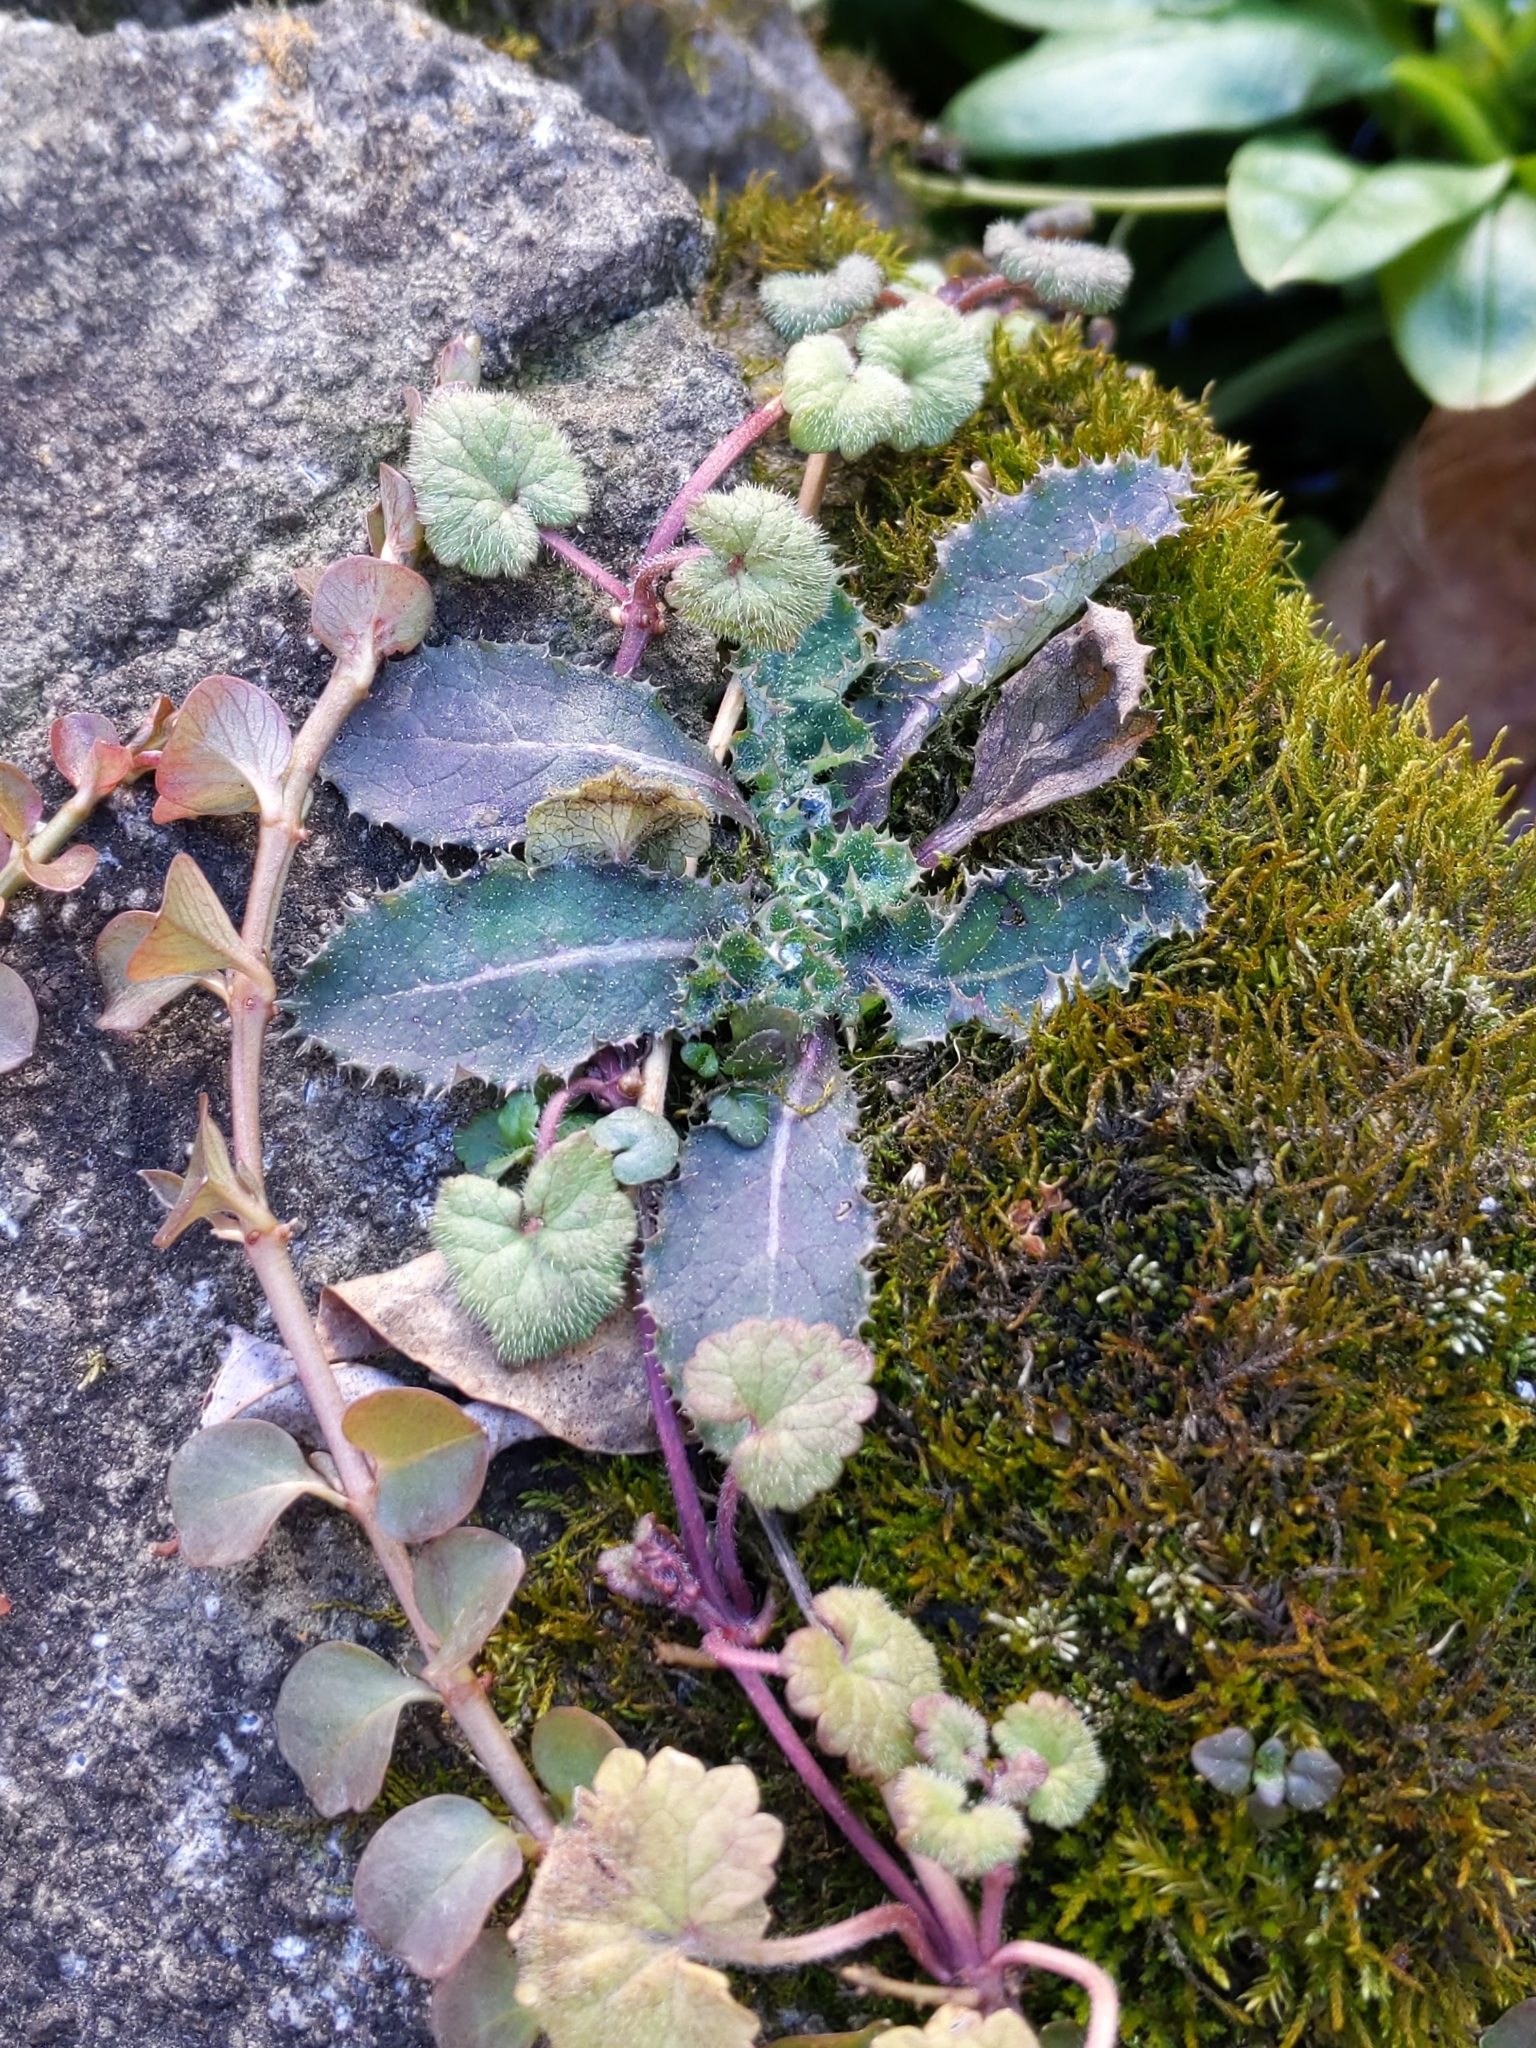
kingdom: Plantae
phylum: Tracheophyta
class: Magnoliopsida
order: Lamiales
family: Lamiaceae
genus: Glechoma
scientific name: Glechoma hederacea
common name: Ground ivy
